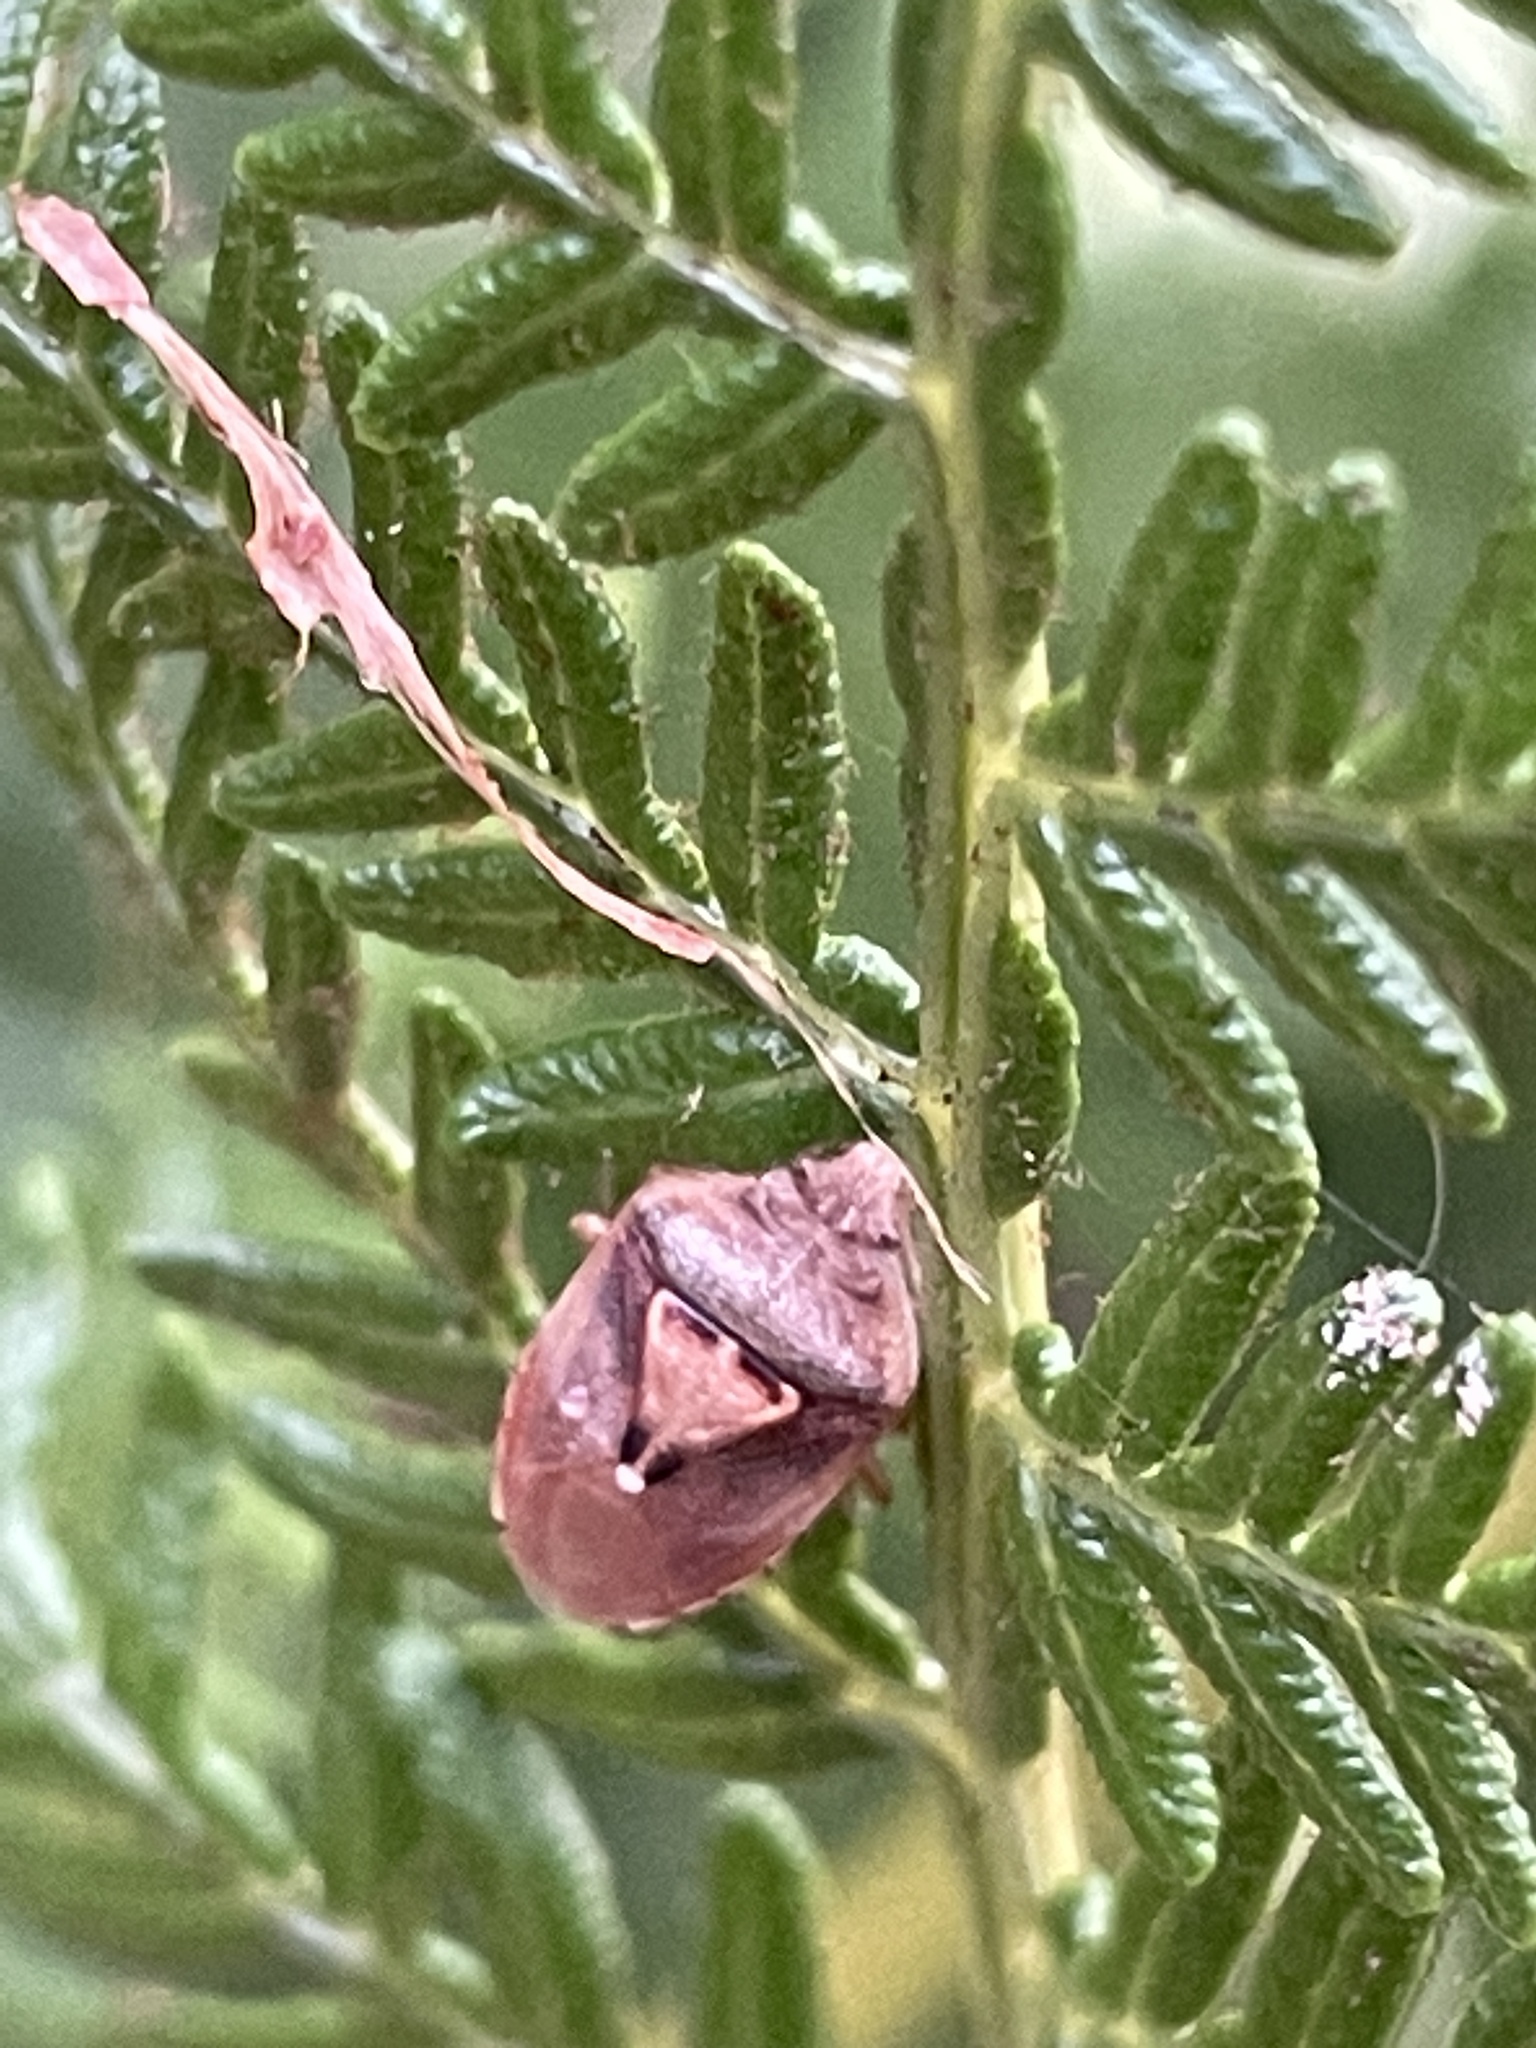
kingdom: Animalia
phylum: Arthropoda
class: Insecta
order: Hemiptera
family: Acanthosomatidae
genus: Eupolemus
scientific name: Eupolemus
